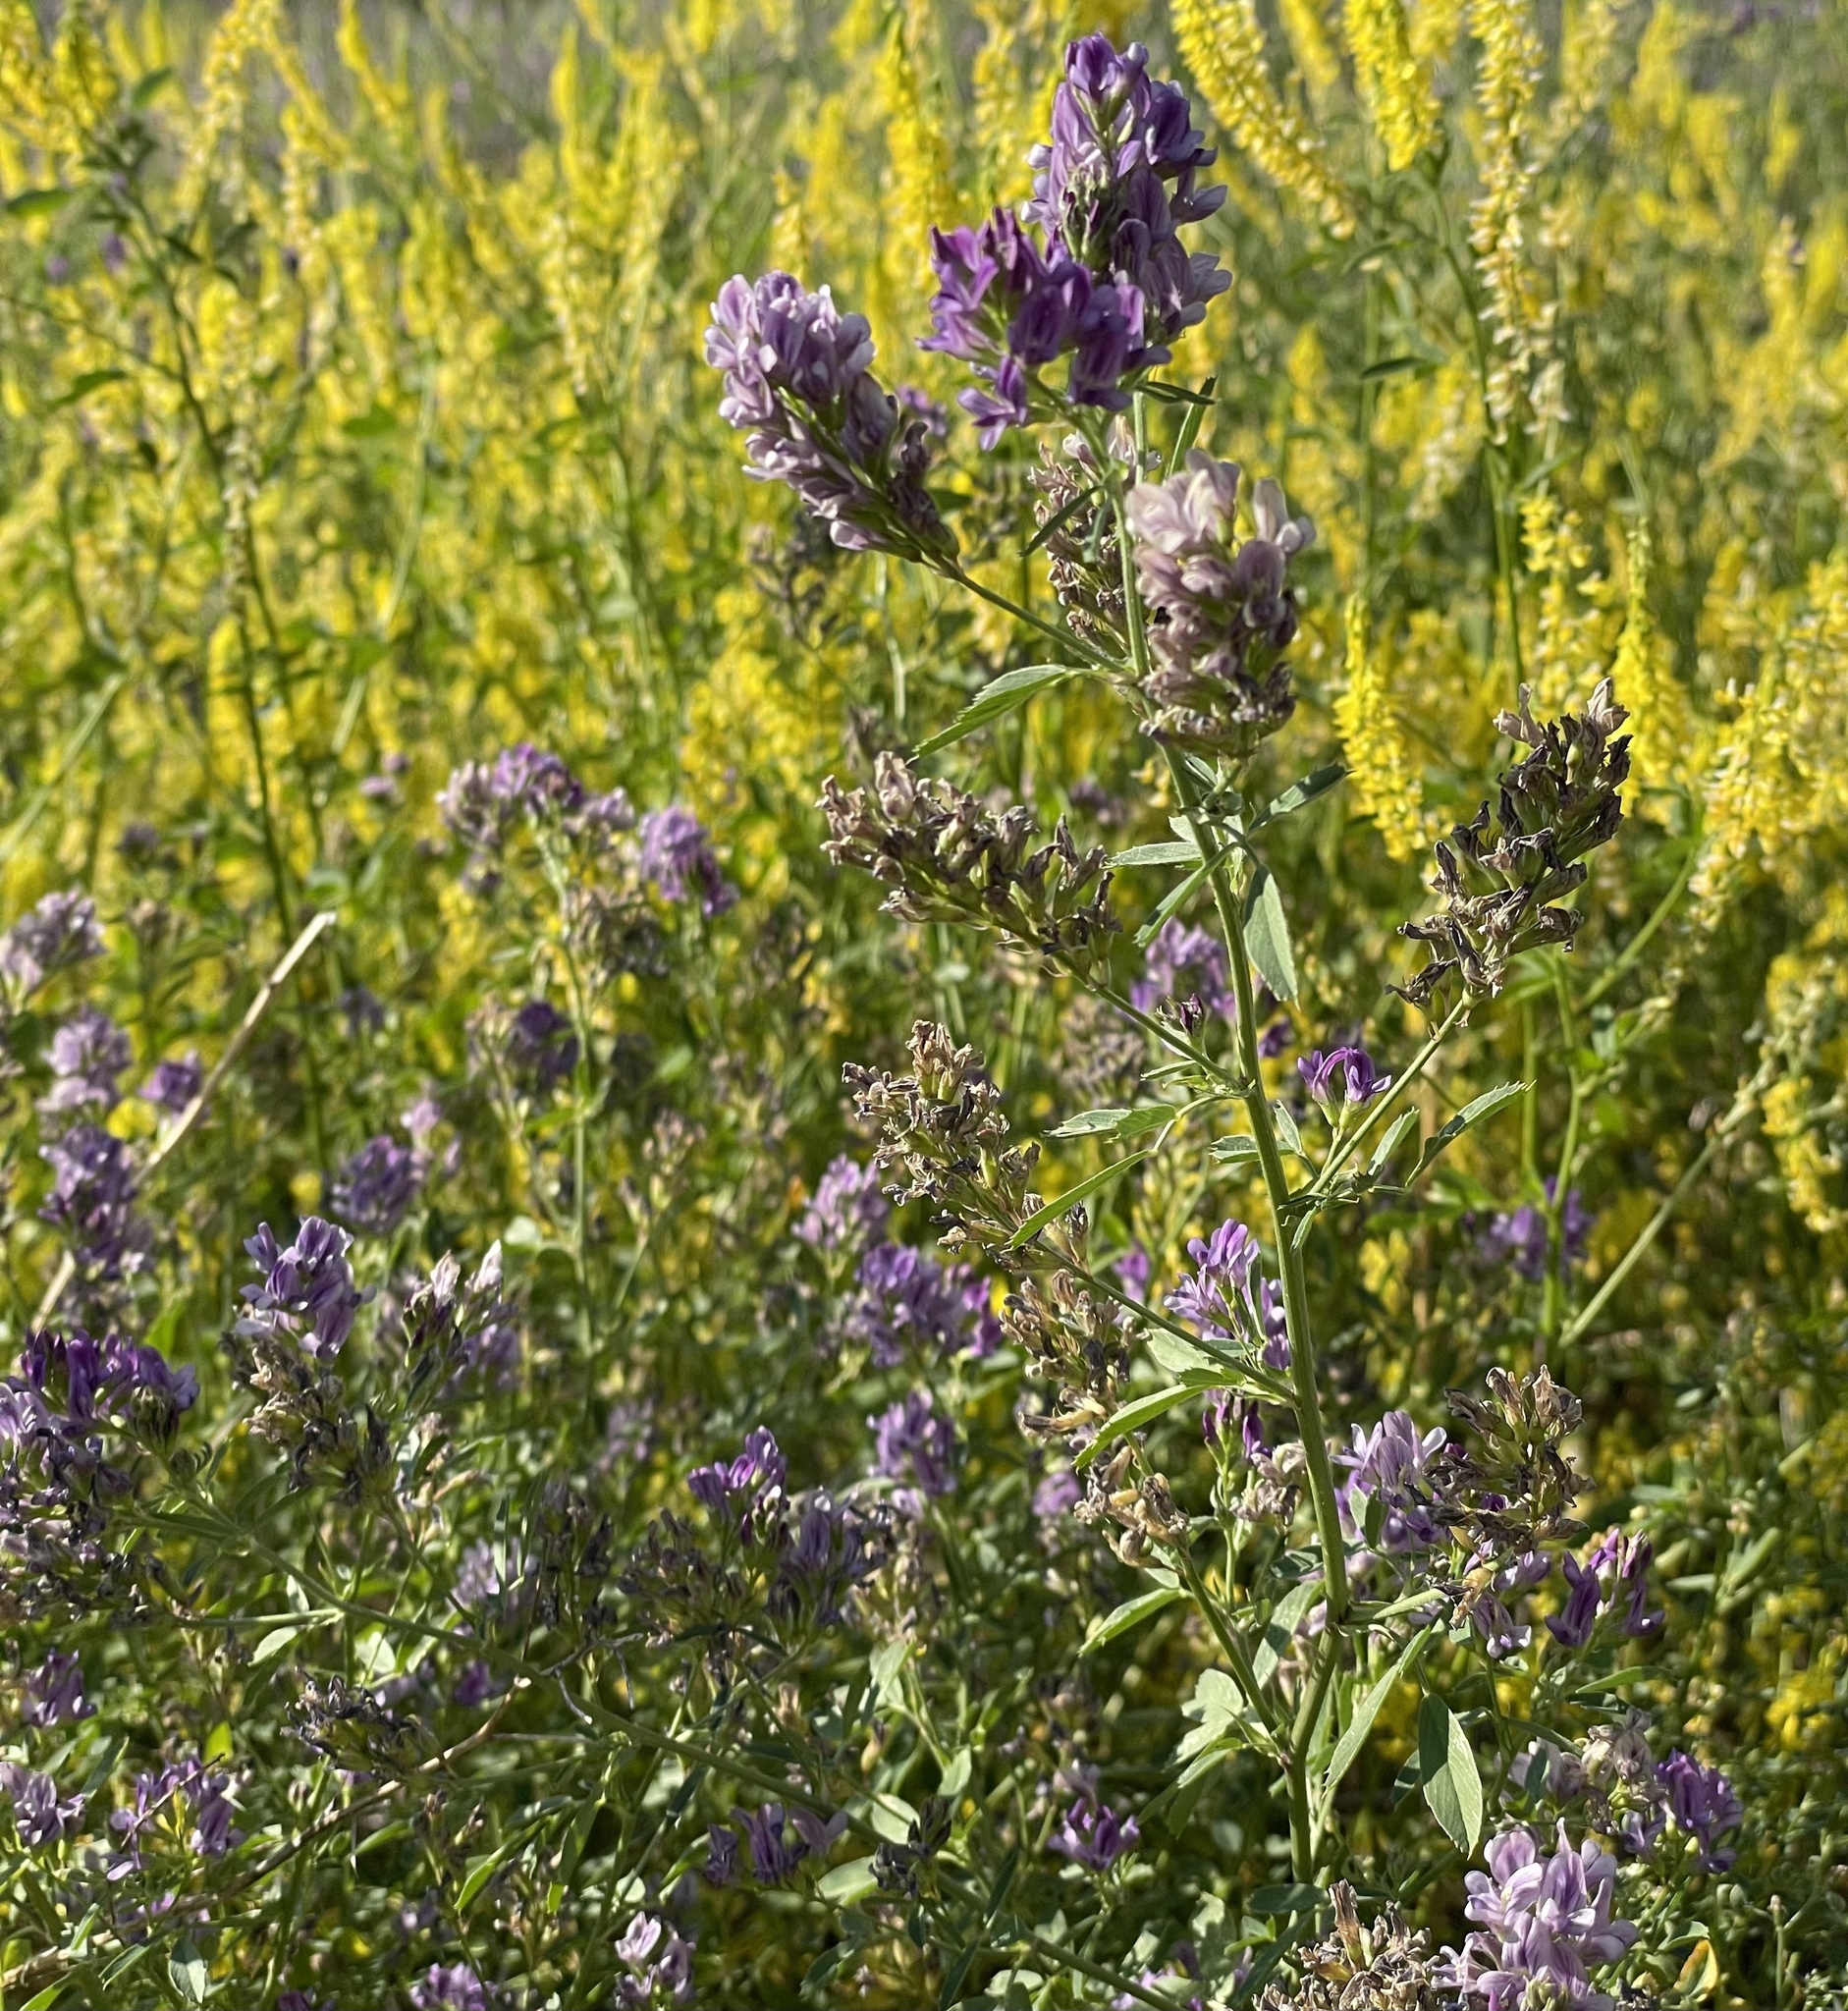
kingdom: Plantae
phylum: Tracheophyta
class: Magnoliopsida
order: Fabales
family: Fabaceae
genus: Medicago
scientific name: Medicago sativa
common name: Alfalfa
